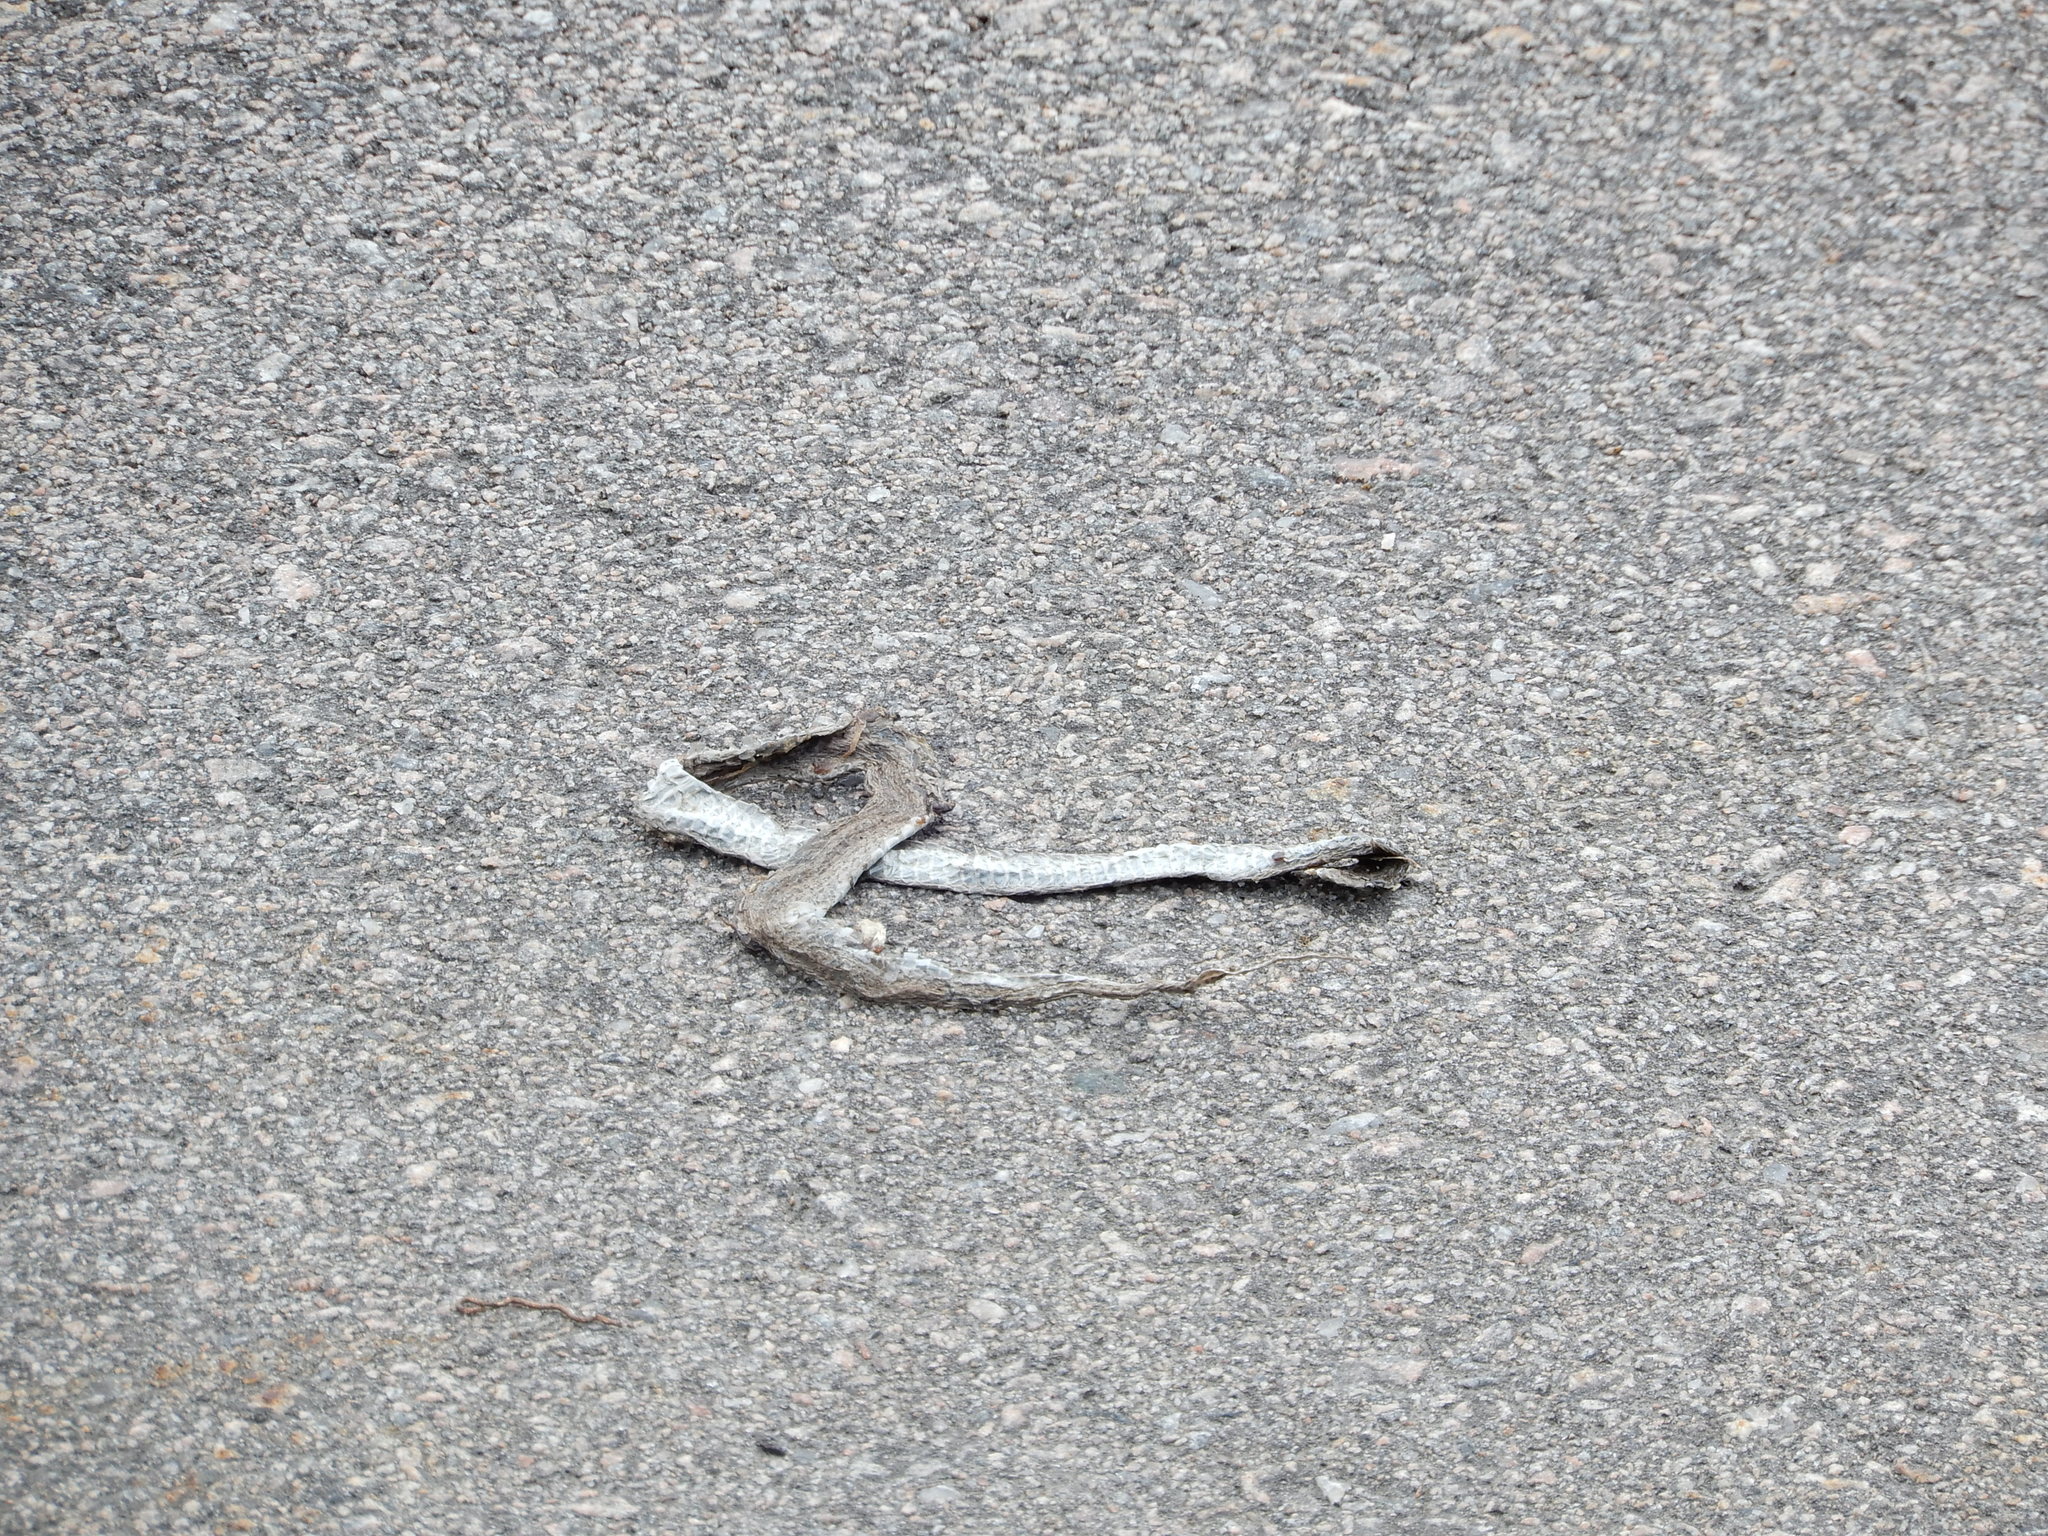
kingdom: Animalia
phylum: Chordata
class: Squamata
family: Colubridae
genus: Nerodia
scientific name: Nerodia sipedon
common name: Northern water snake
